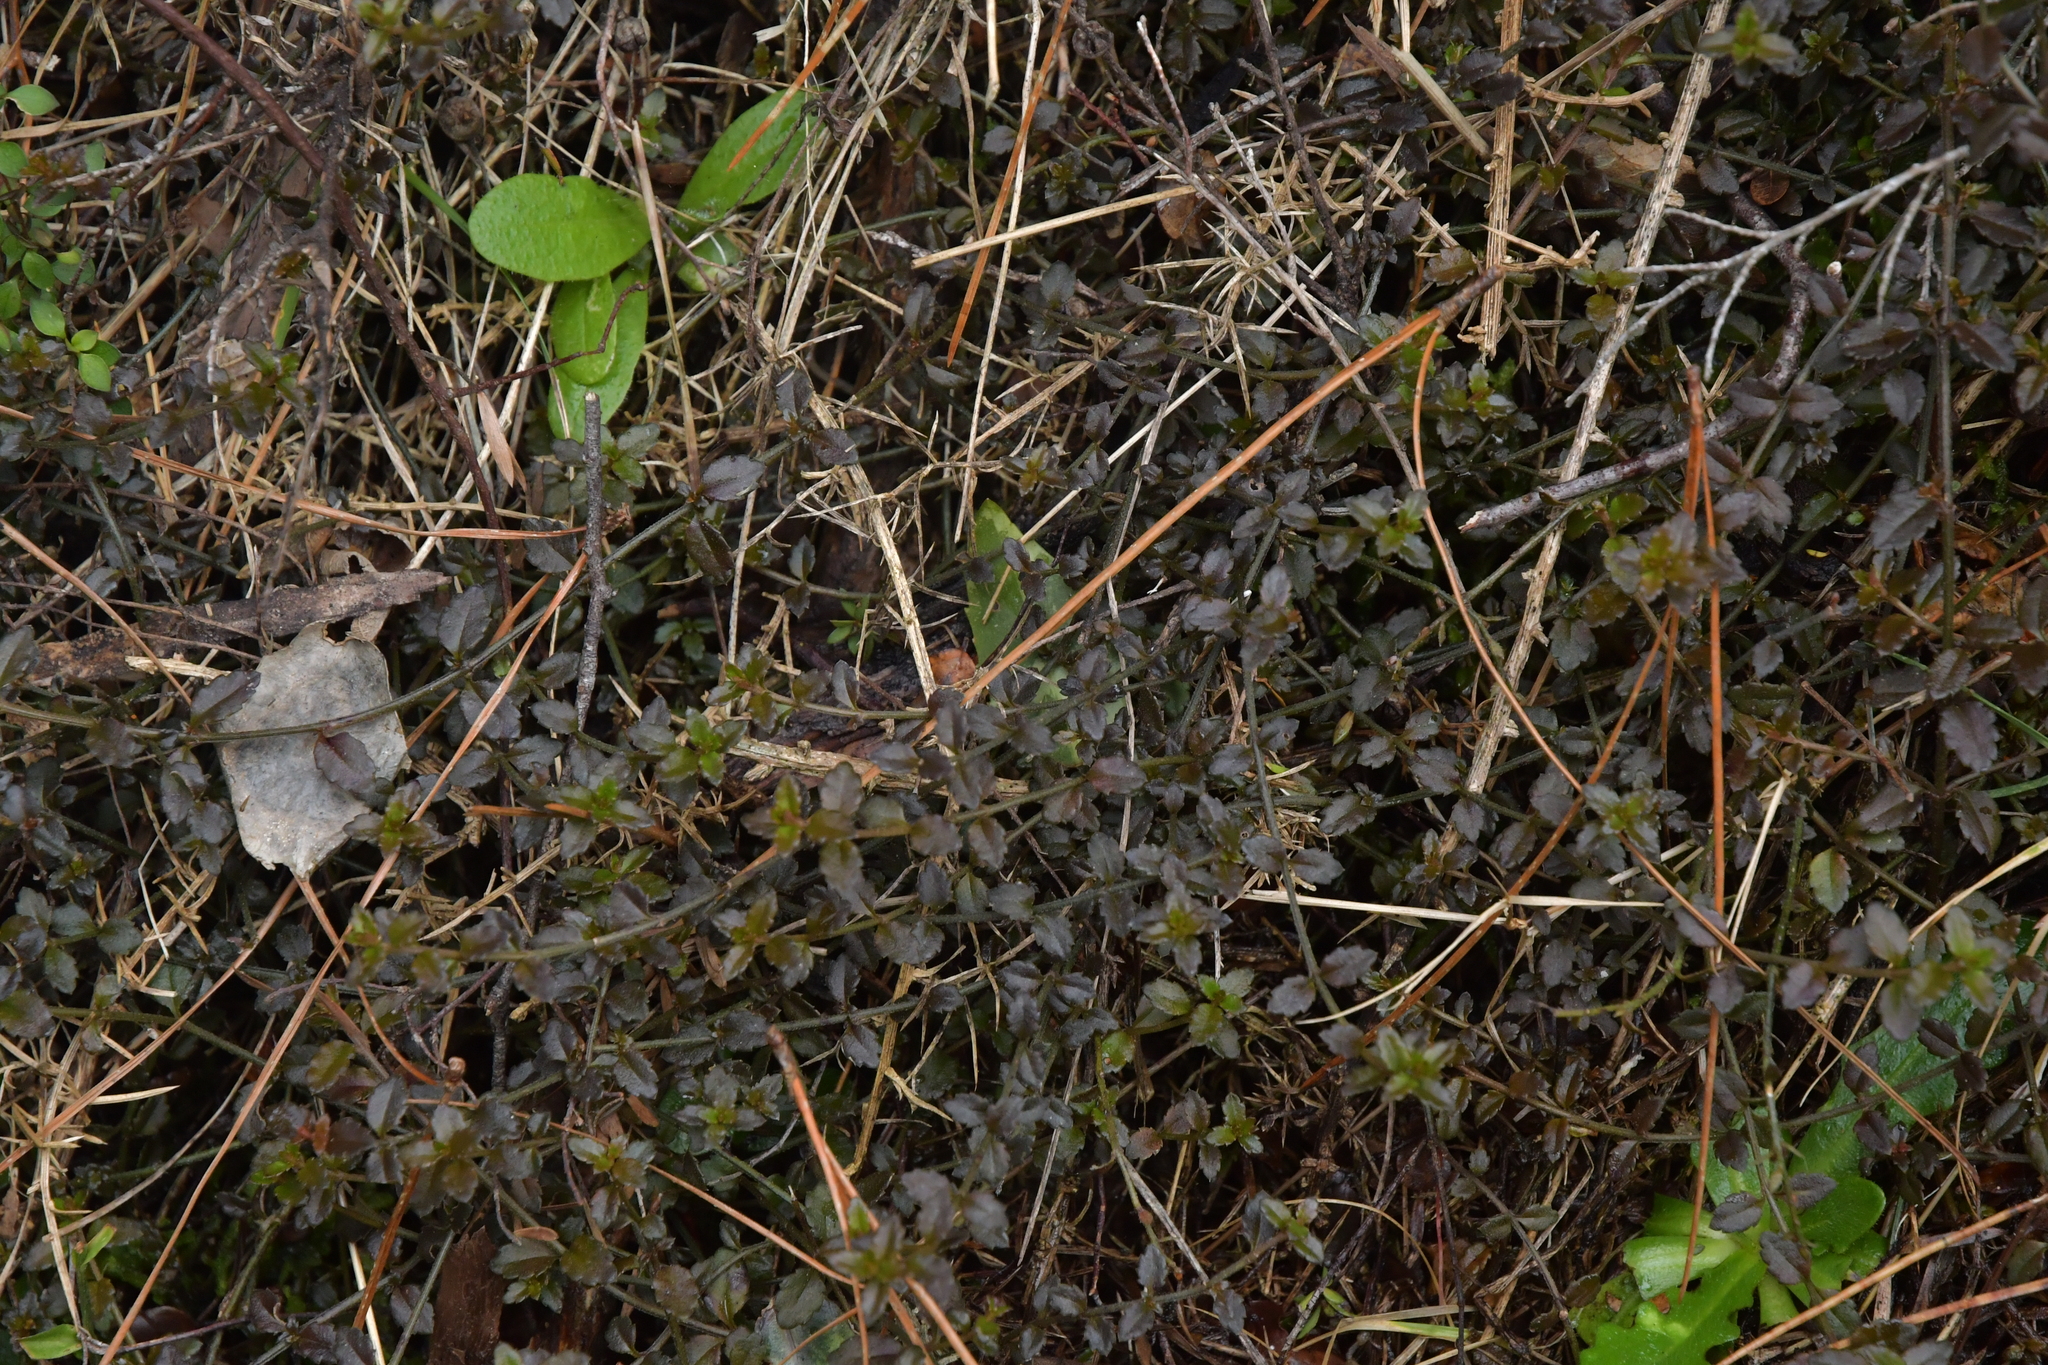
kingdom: Plantae
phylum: Tracheophyta
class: Magnoliopsida
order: Saxifragales
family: Haloragaceae
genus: Gonocarpus
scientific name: Gonocarpus incanus
